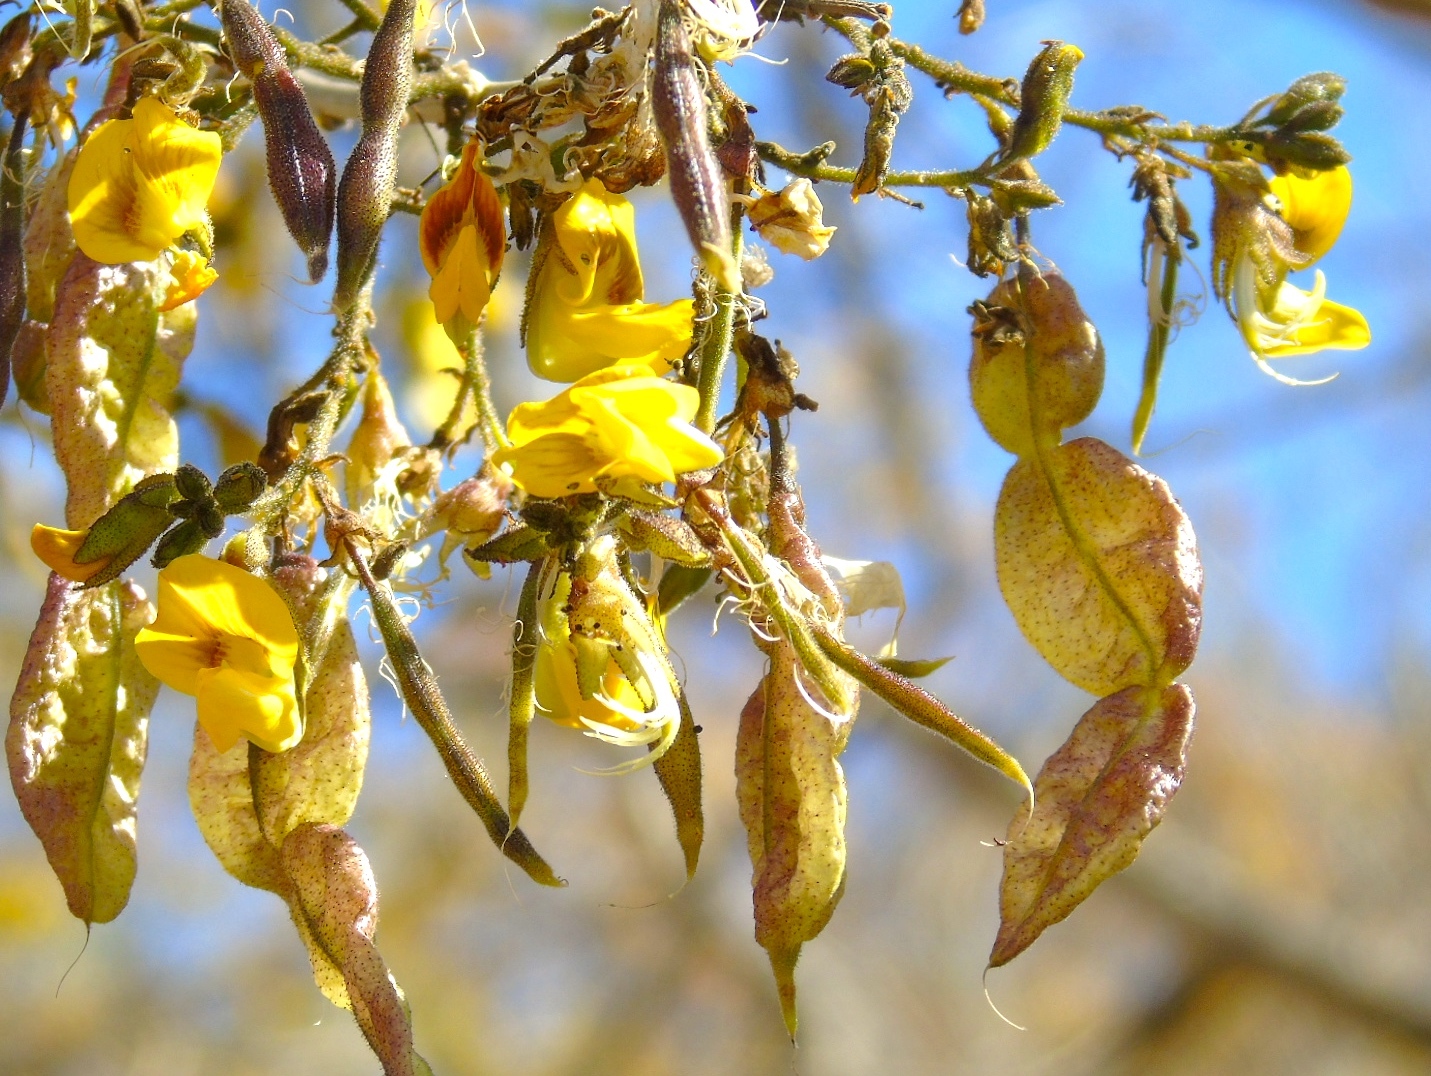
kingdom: Plantae
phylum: Tracheophyta
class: Magnoliopsida
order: Fabales
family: Fabaceae
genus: Diphysa
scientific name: Diphysa occidentalis
